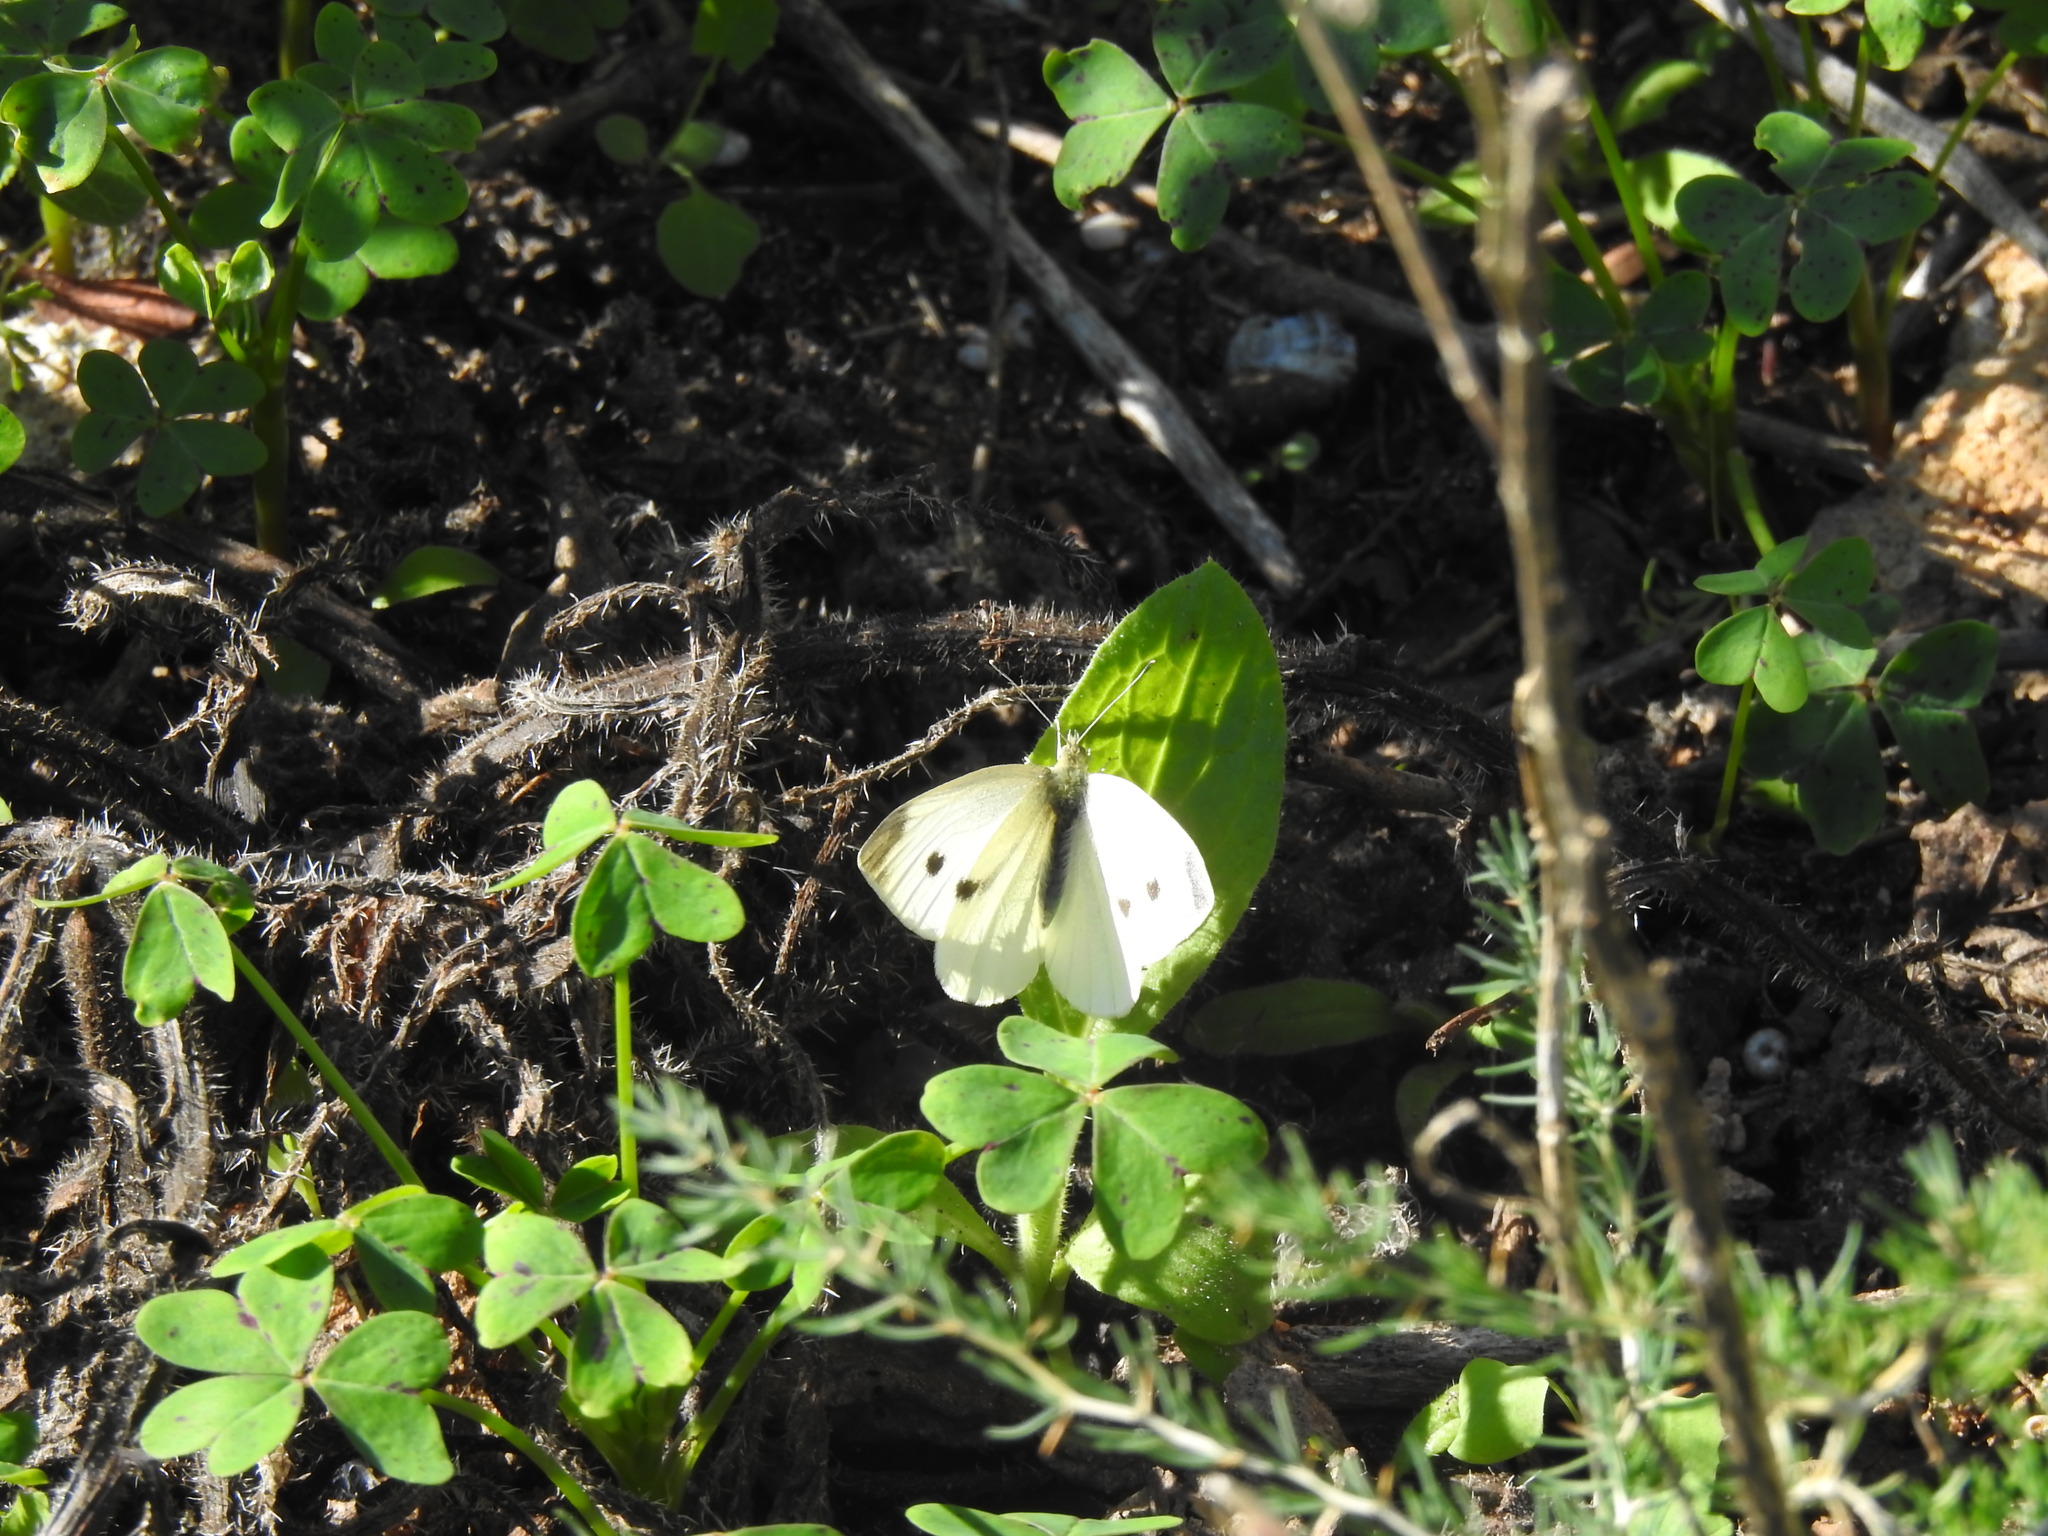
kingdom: Animalia
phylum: Arthropoda
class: Insecta
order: Lepidoptera
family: Pieridae
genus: Pieris
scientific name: Pieris rapae
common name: Small white
